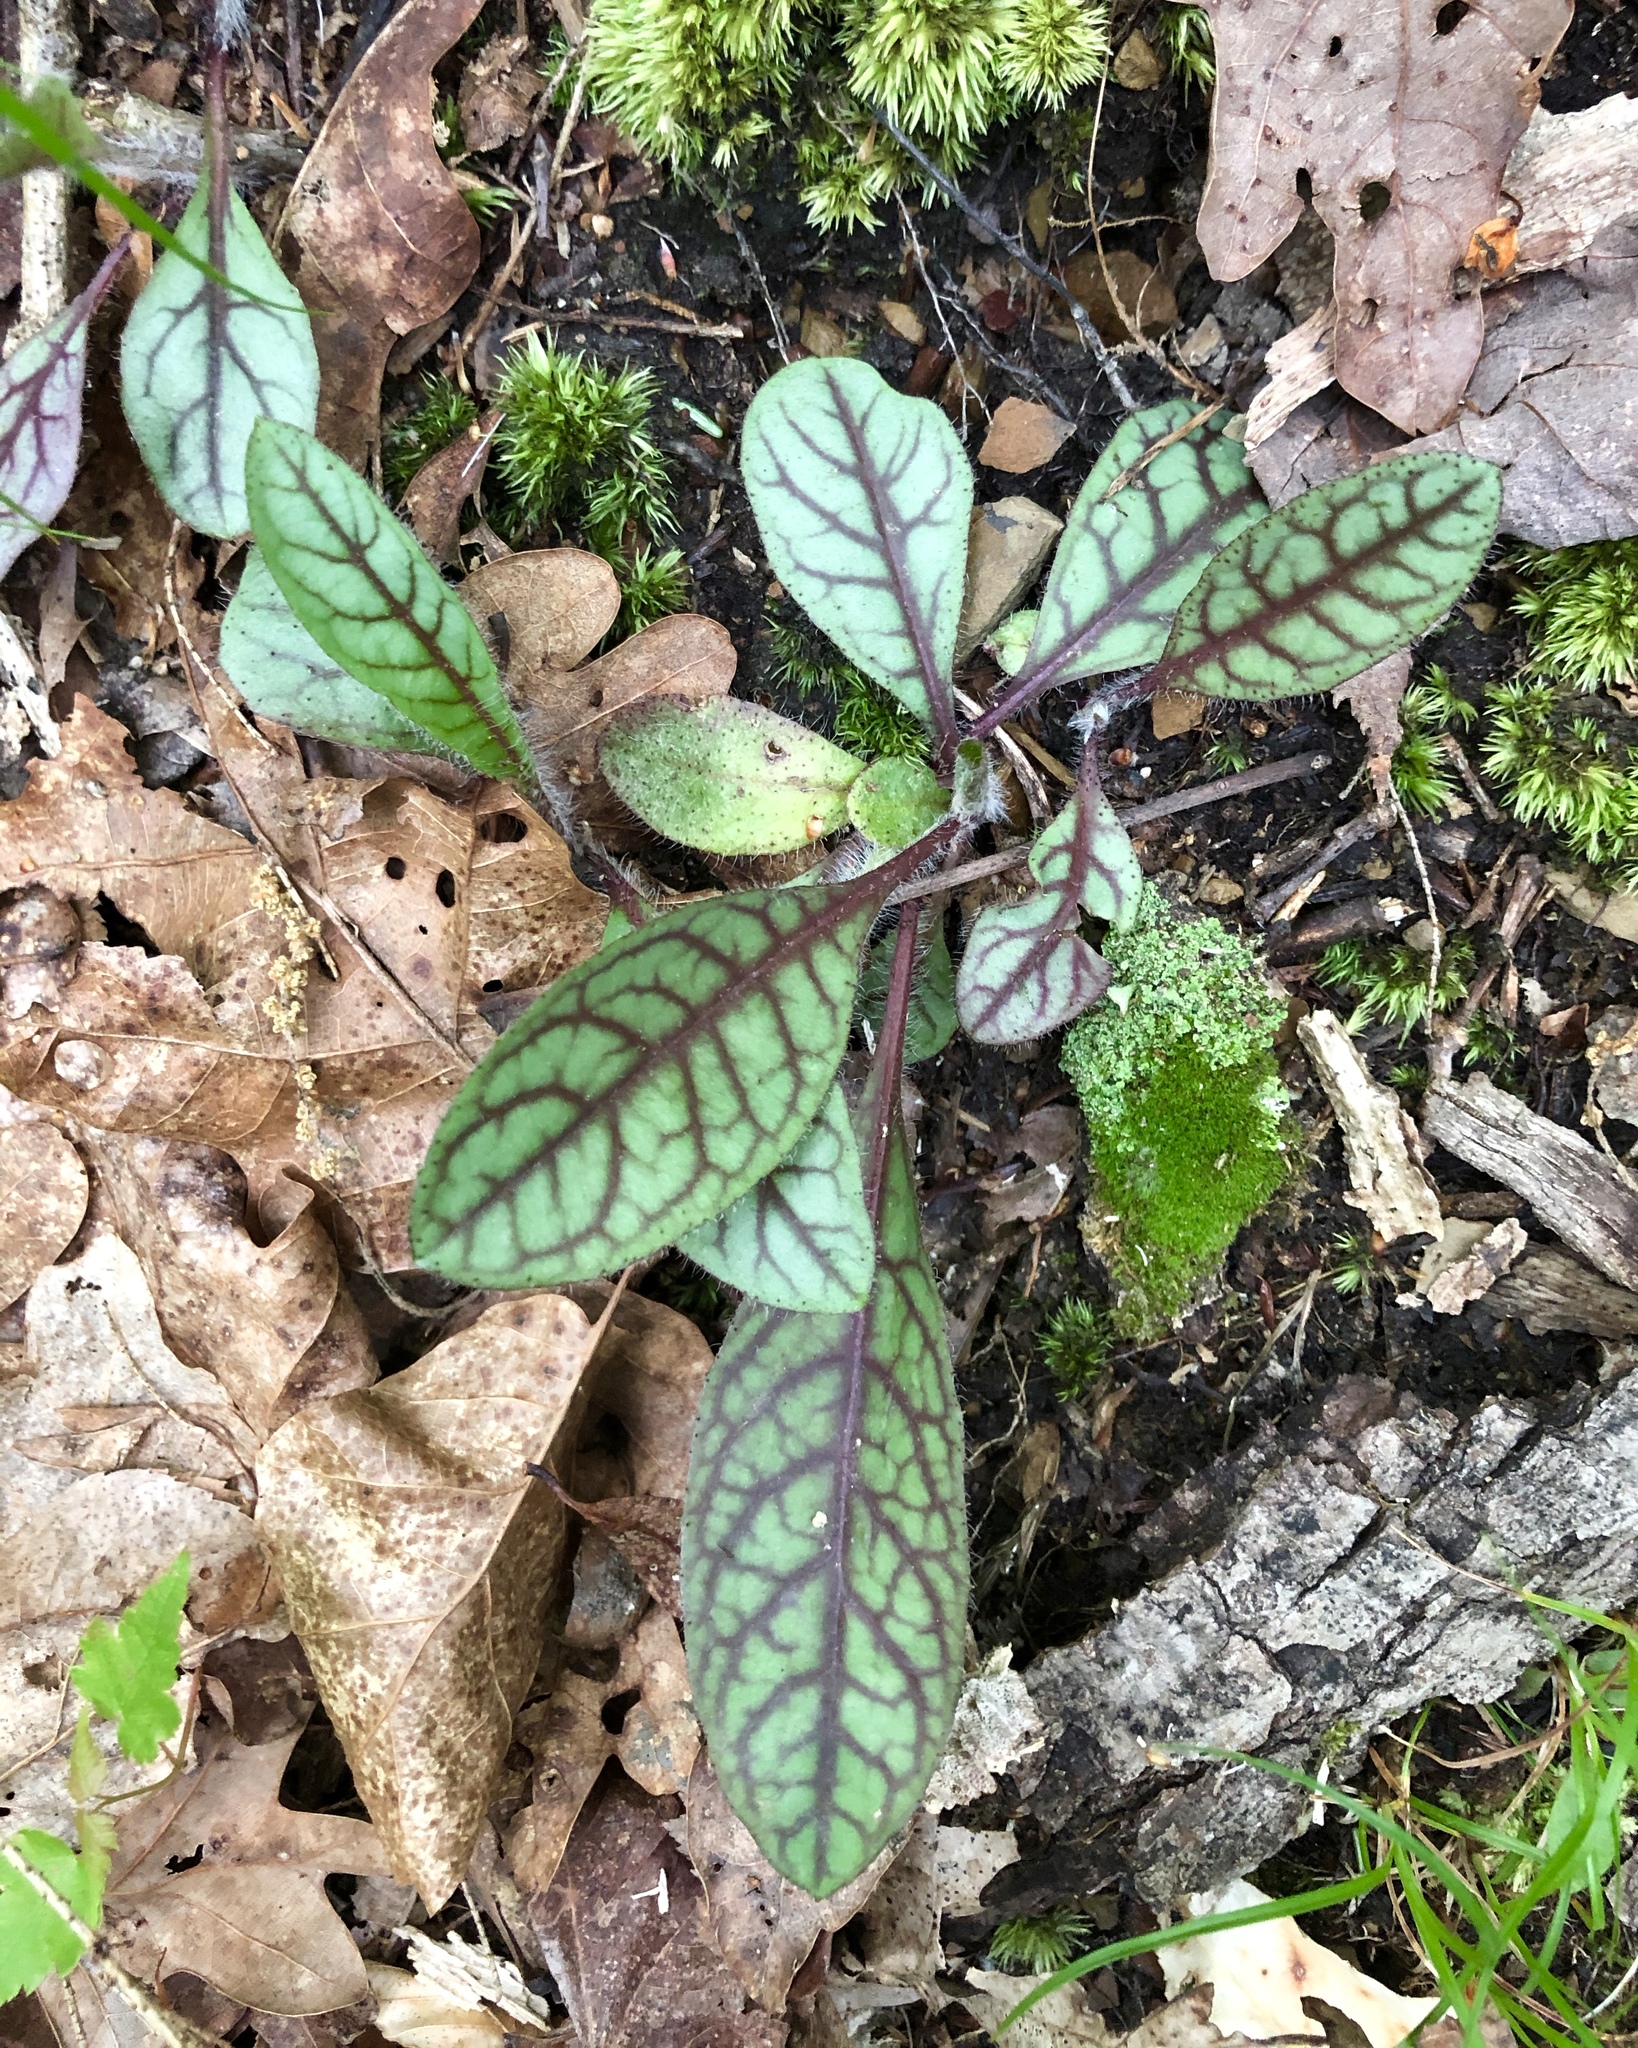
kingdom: Plantae
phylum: Tracheophyta
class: Magnoliopsida
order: Asterales
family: Asteraceae
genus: Hieracium
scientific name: Hieracium venosum
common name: Rattlesnake hawkweed
